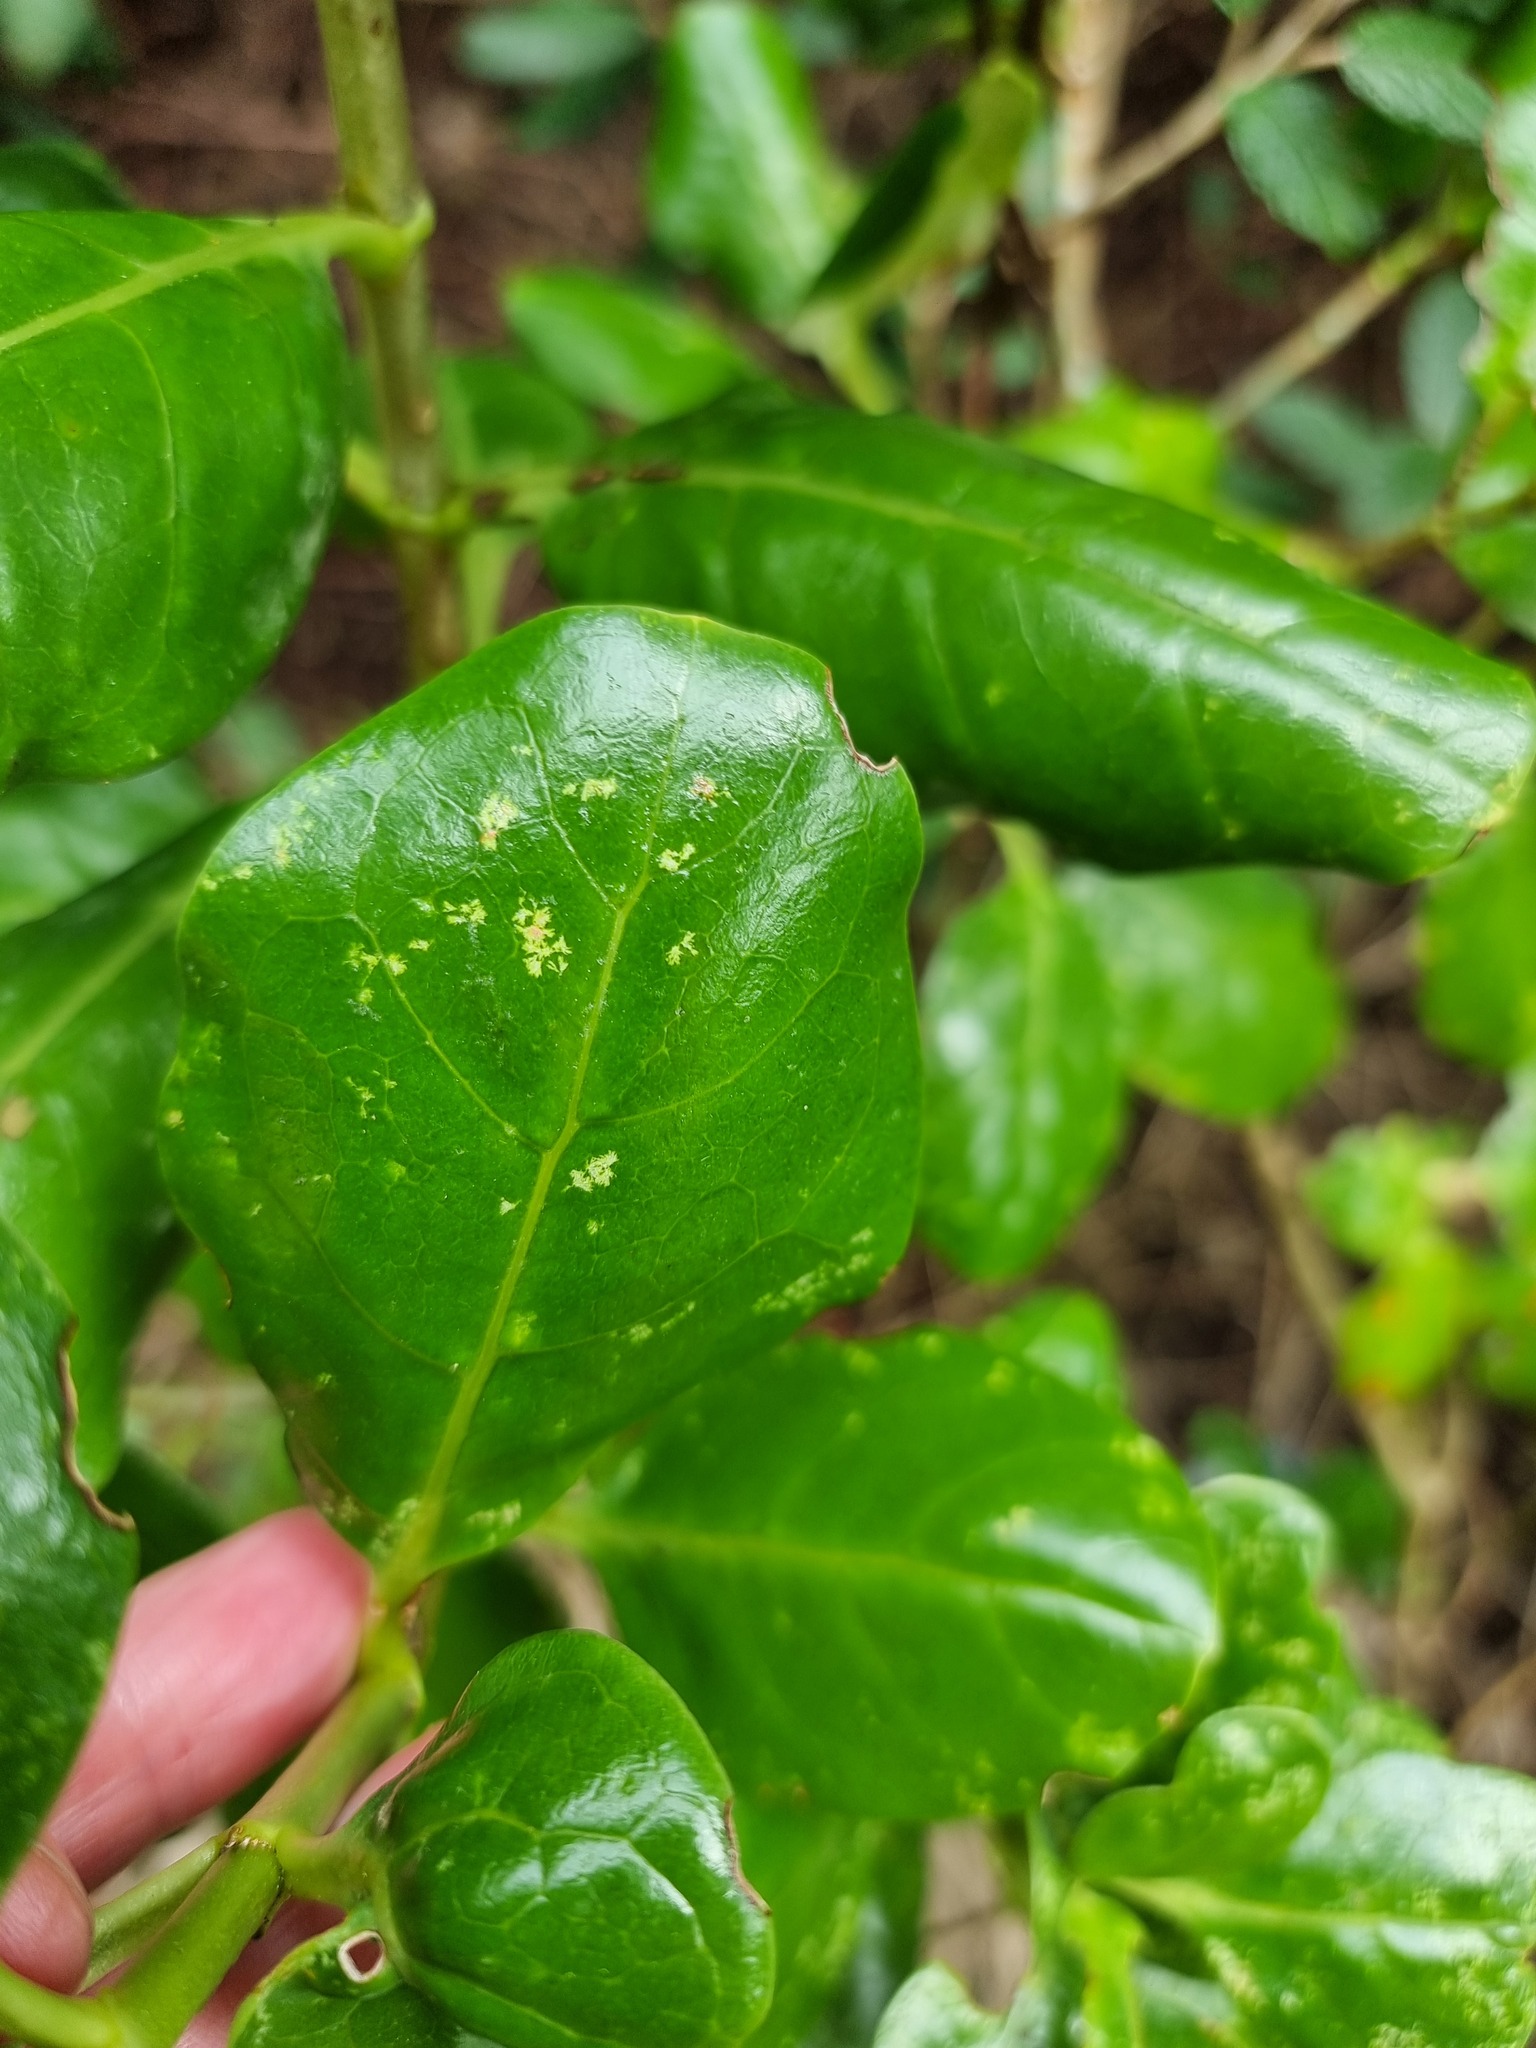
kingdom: Plantae
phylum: Tracheophyta
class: Magnoliopsida
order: Gentianales
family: Rubiaceae
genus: Coprosma
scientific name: Coprosma repens
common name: Tree bedstraw
